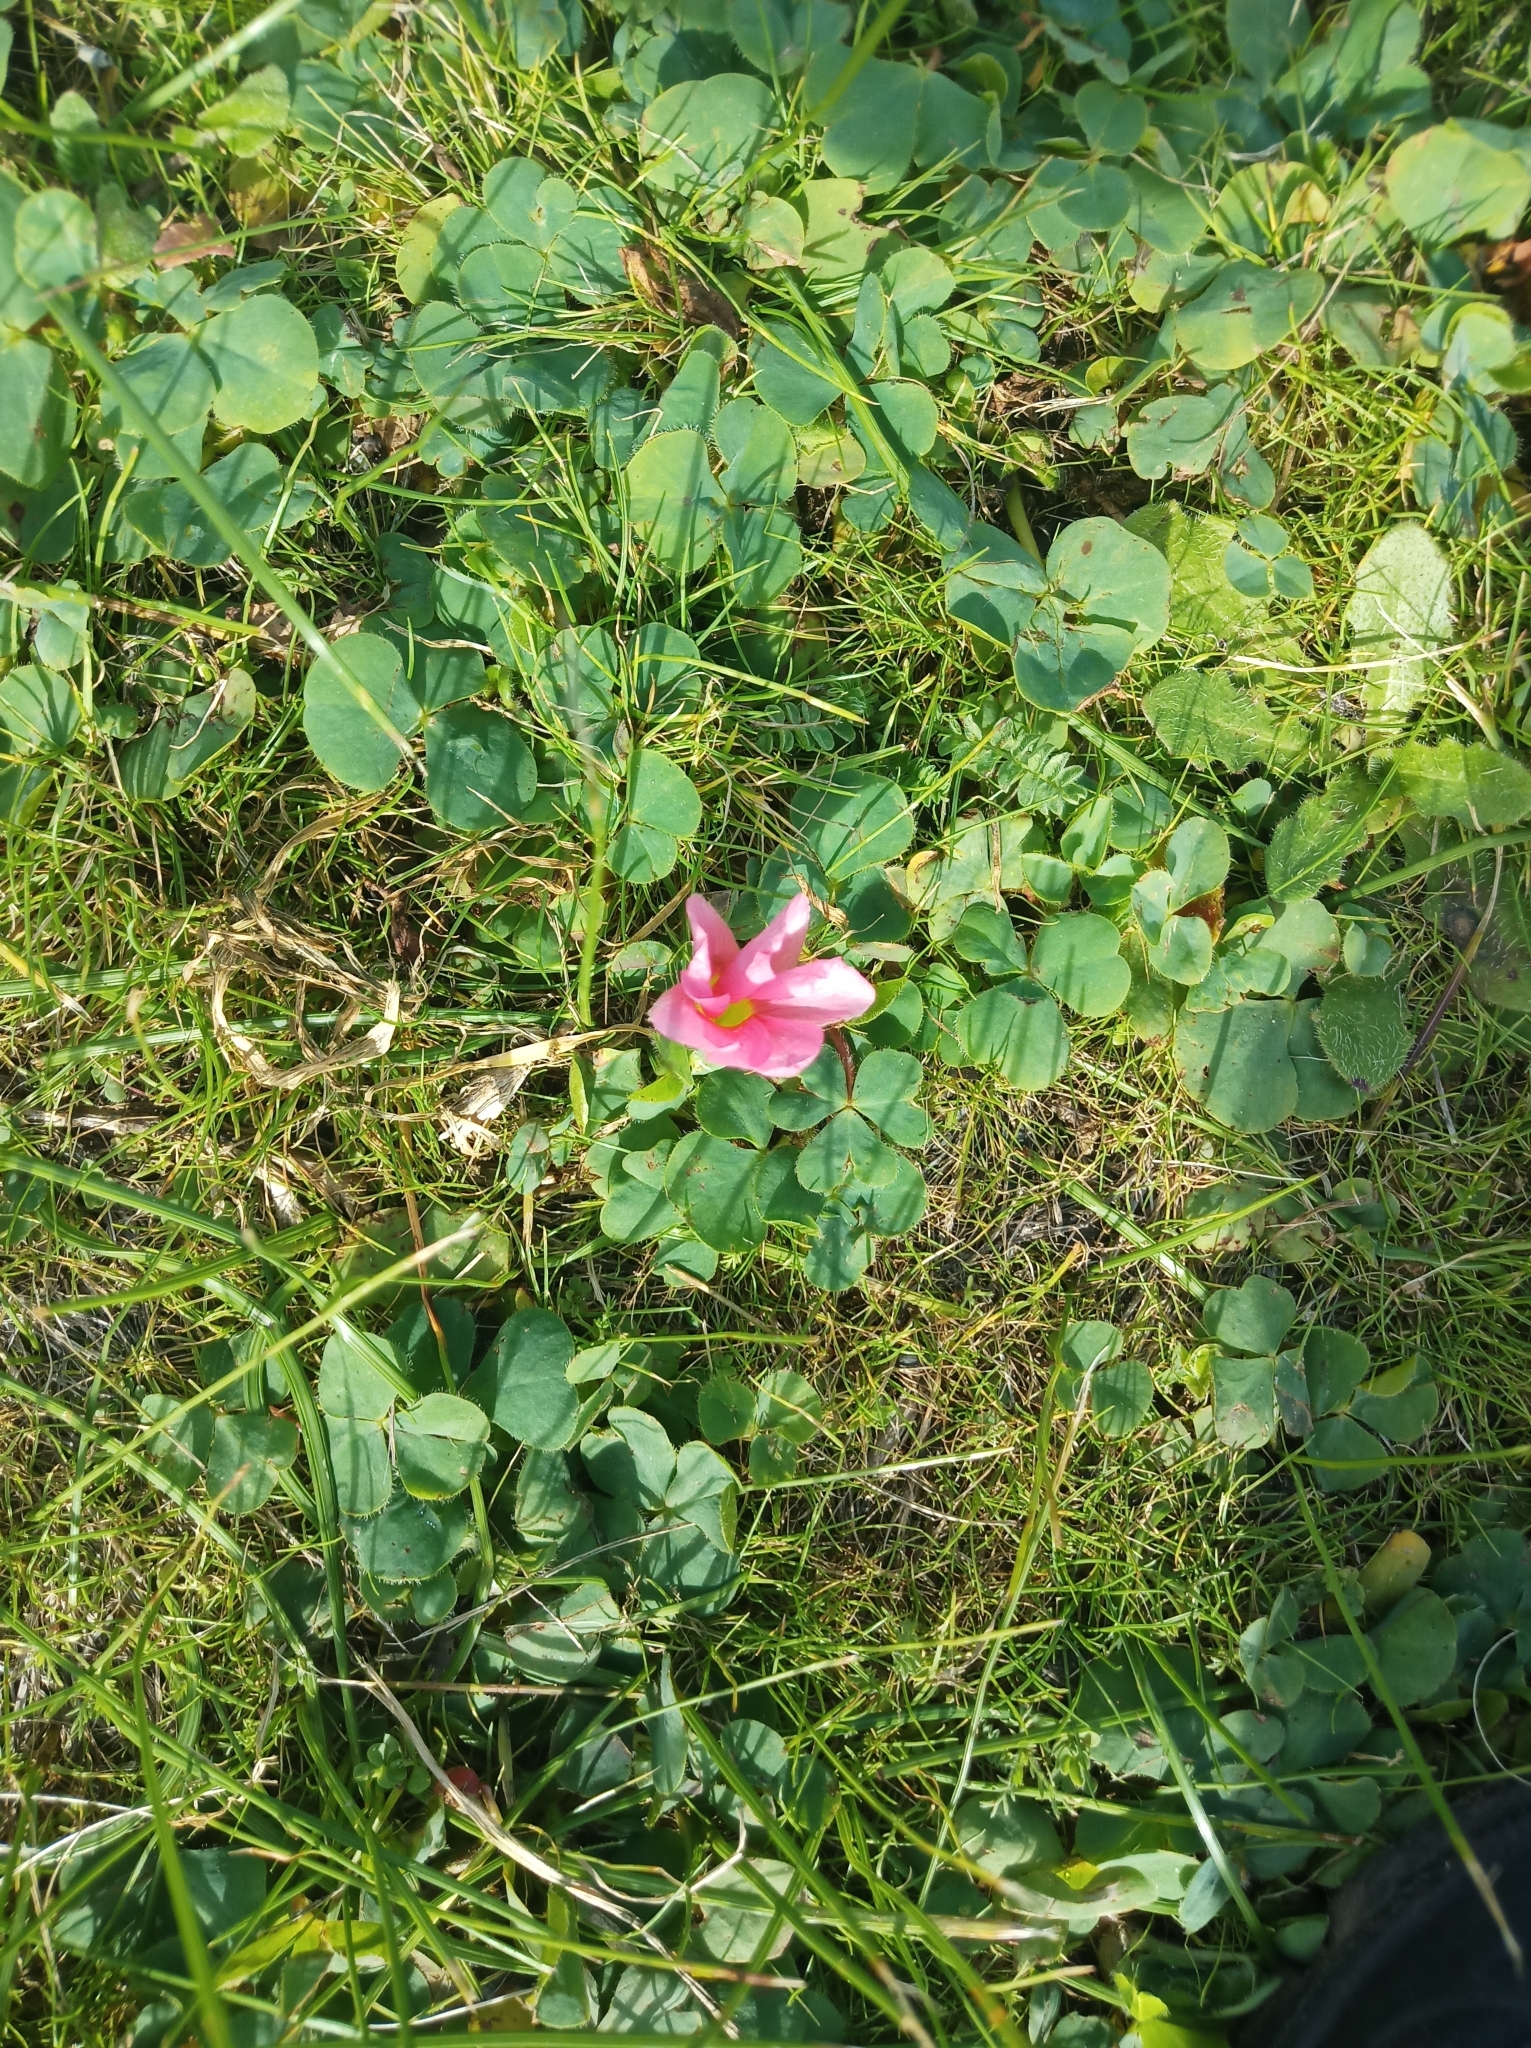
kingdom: Plantae
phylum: Tracheophyta
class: Magnoliopsida
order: Oxalidales
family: Oxalidaceae
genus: Oxalis
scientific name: Oxalis purpurea
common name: Purple woodsorrel
